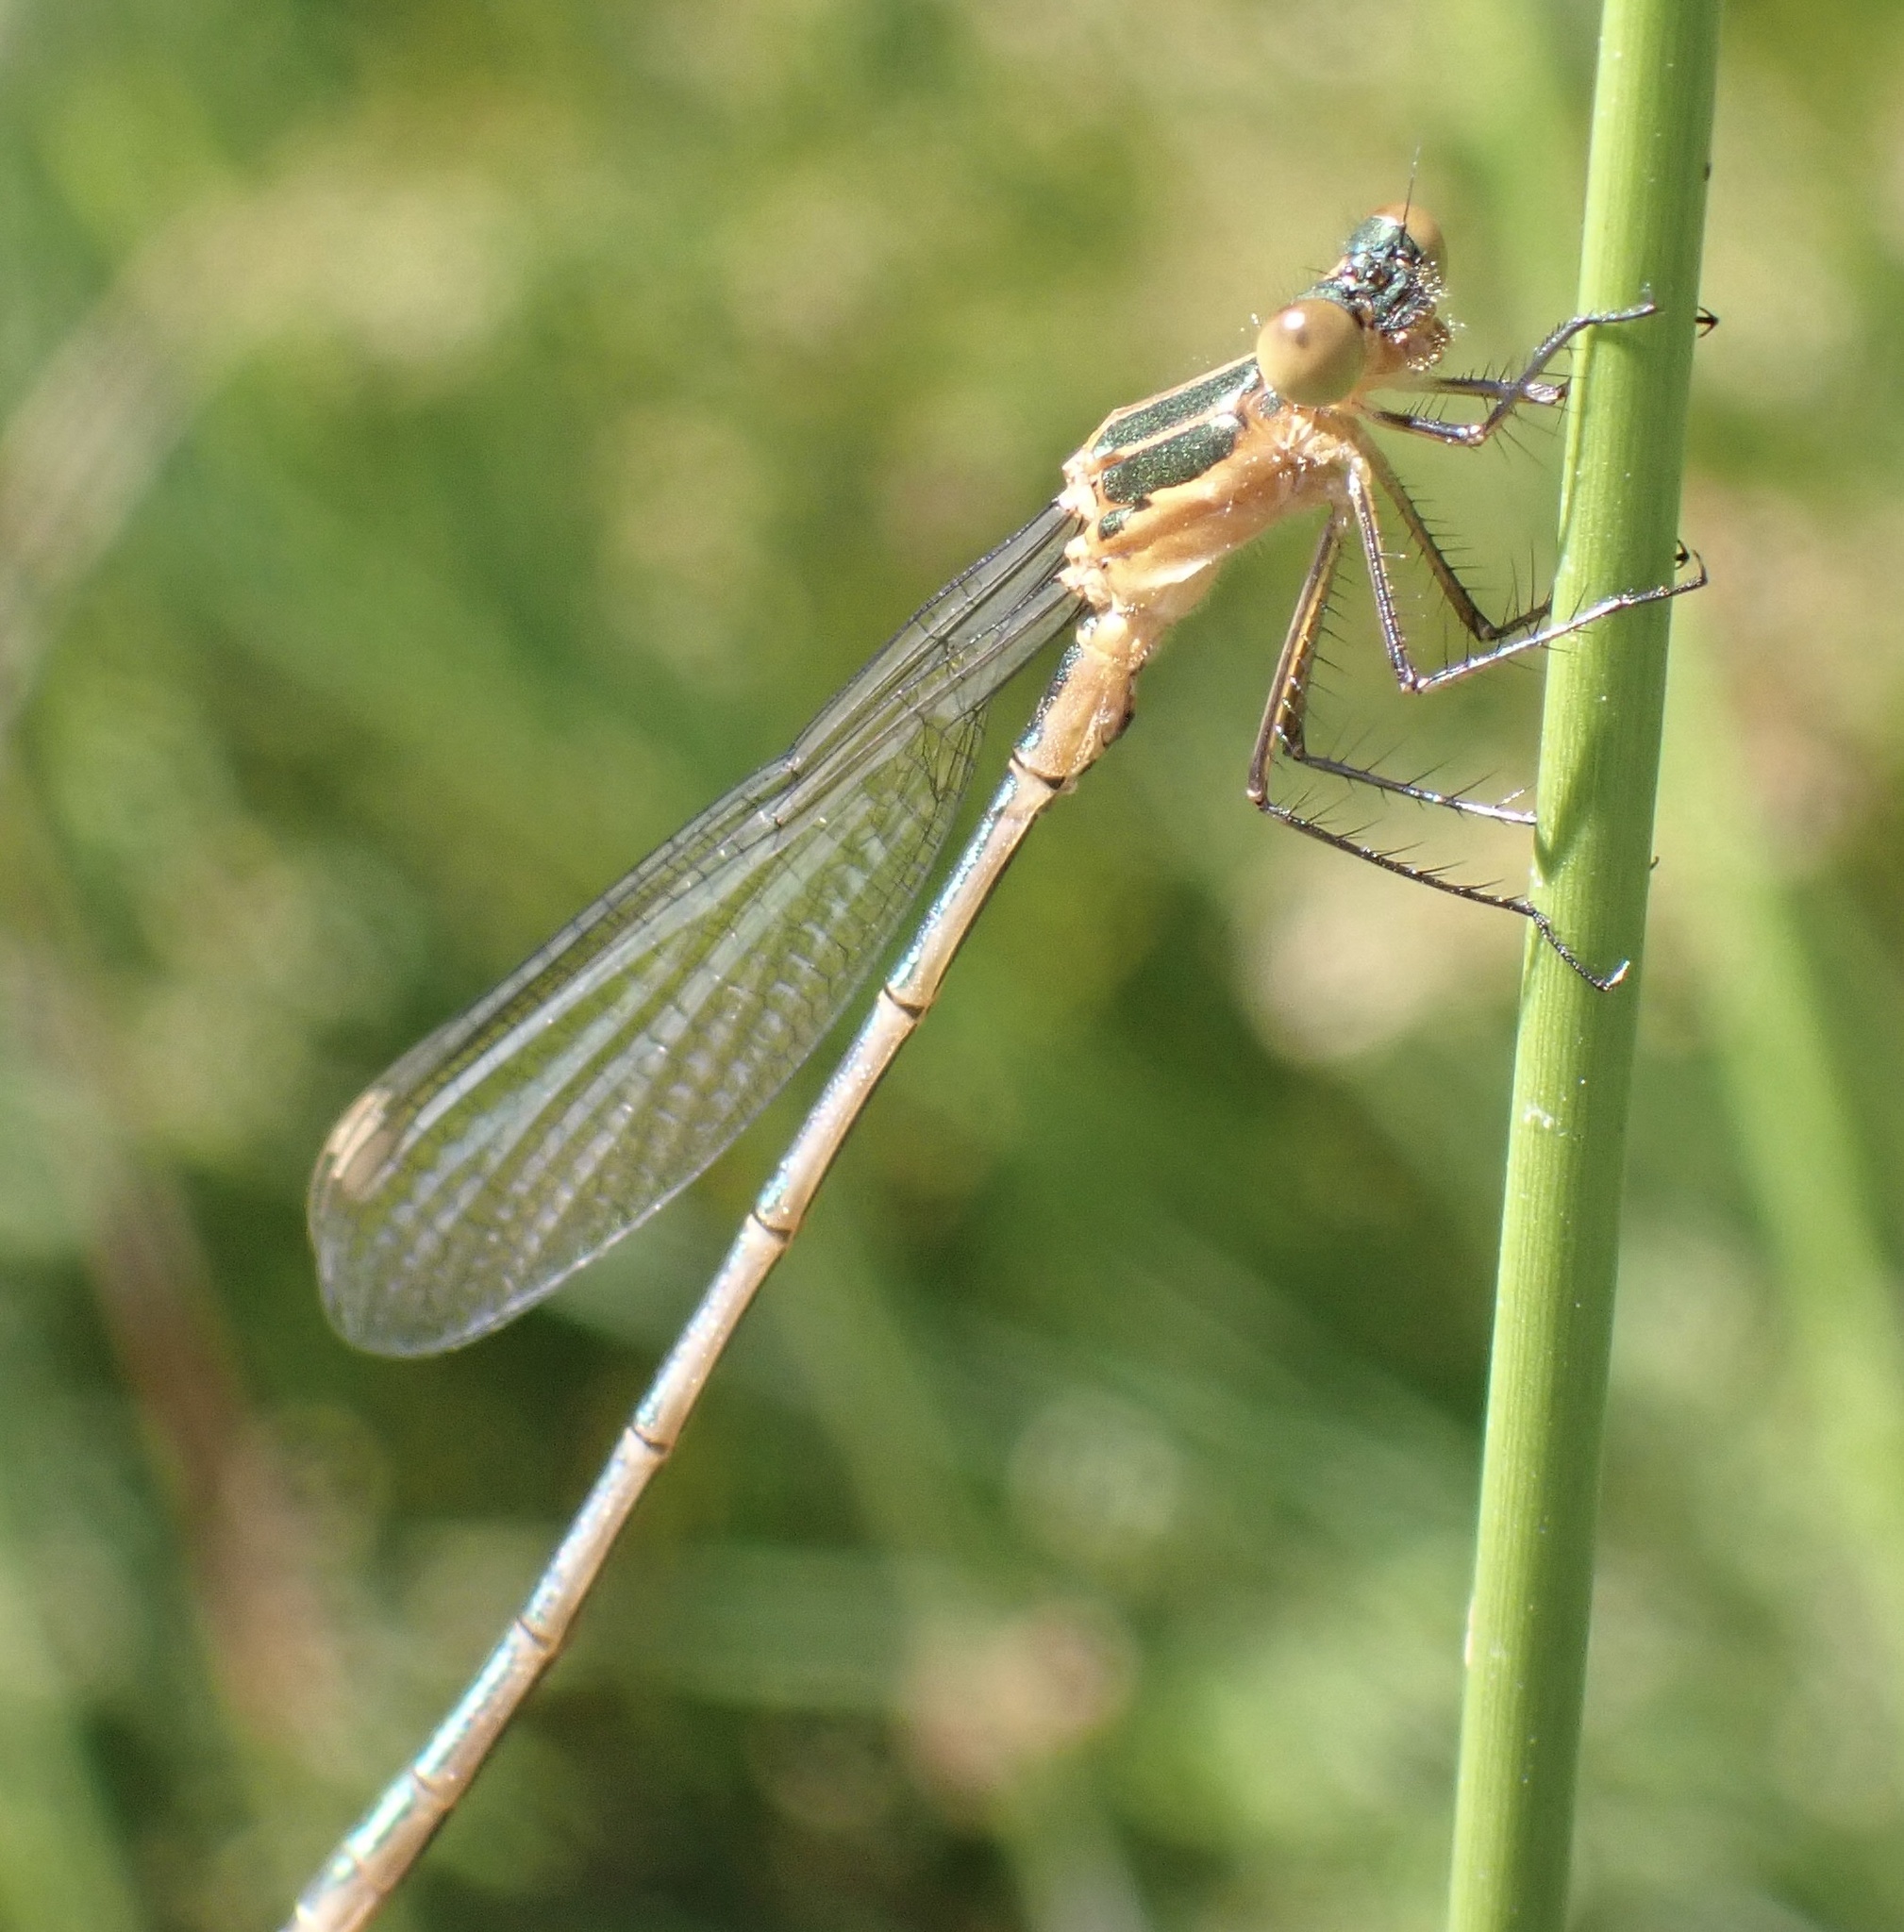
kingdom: Animalia
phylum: Arthropoda
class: Insecta
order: Odonata
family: Lestidae
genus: Lestes
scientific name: Lestes sponsa
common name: Common spreadwing
